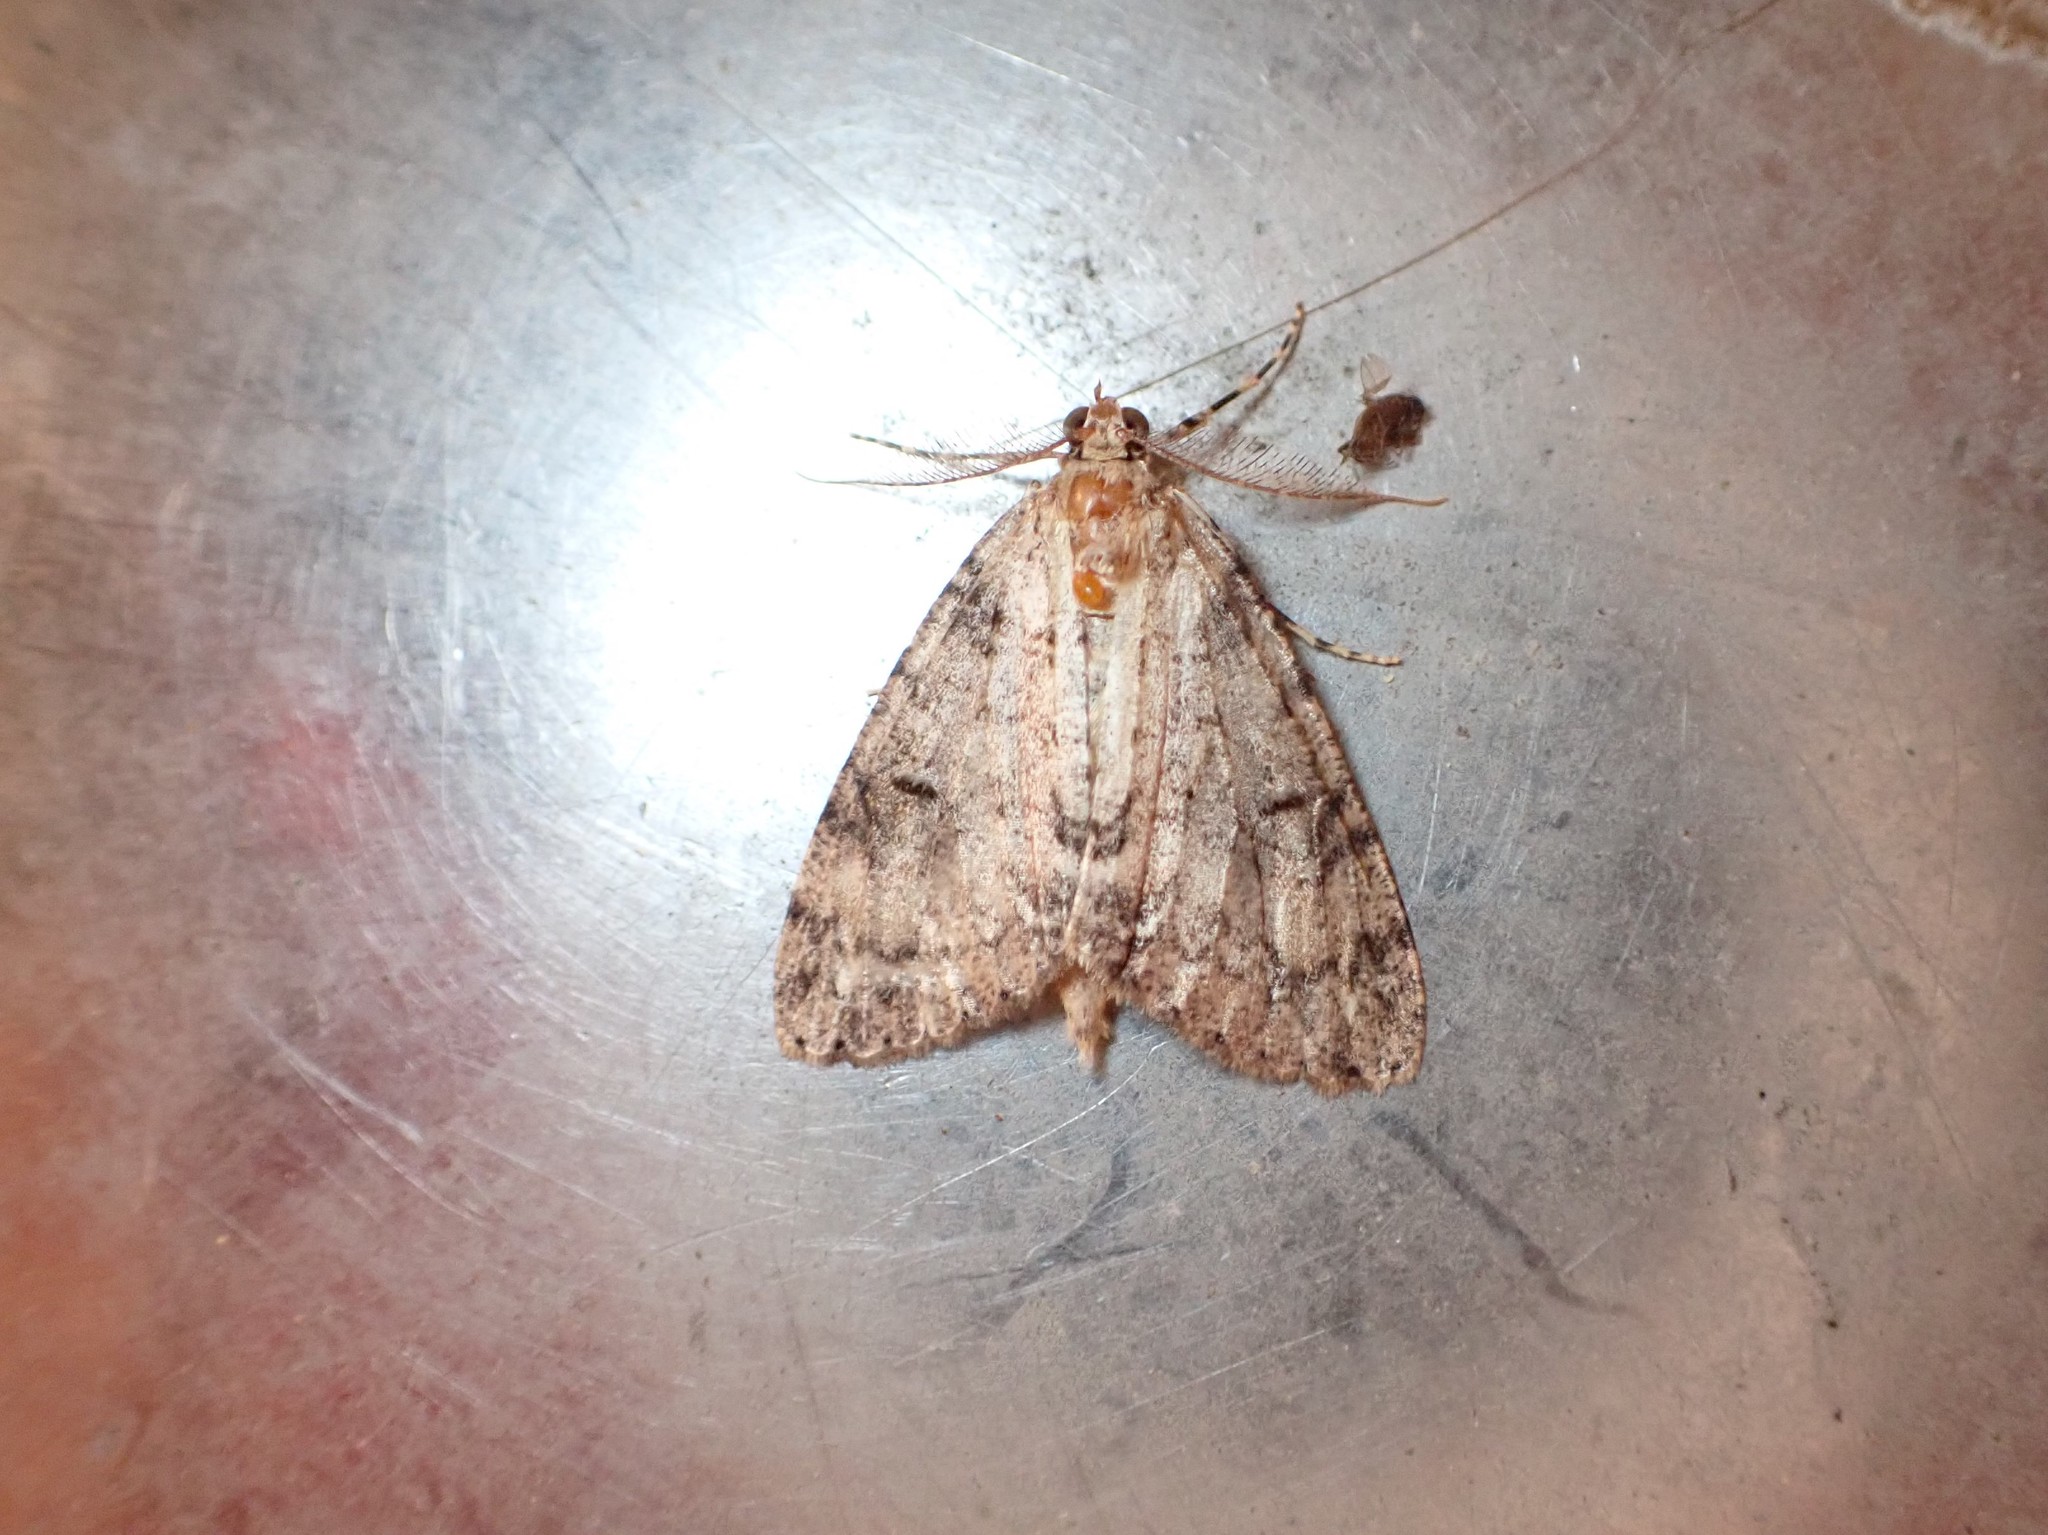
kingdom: Animalia
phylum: Arthropoda
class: Insecta
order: Lepidoptera
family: Geometridae
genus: Pseudocoremia
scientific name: Pseudocoremia suavis
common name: Common forest looper
